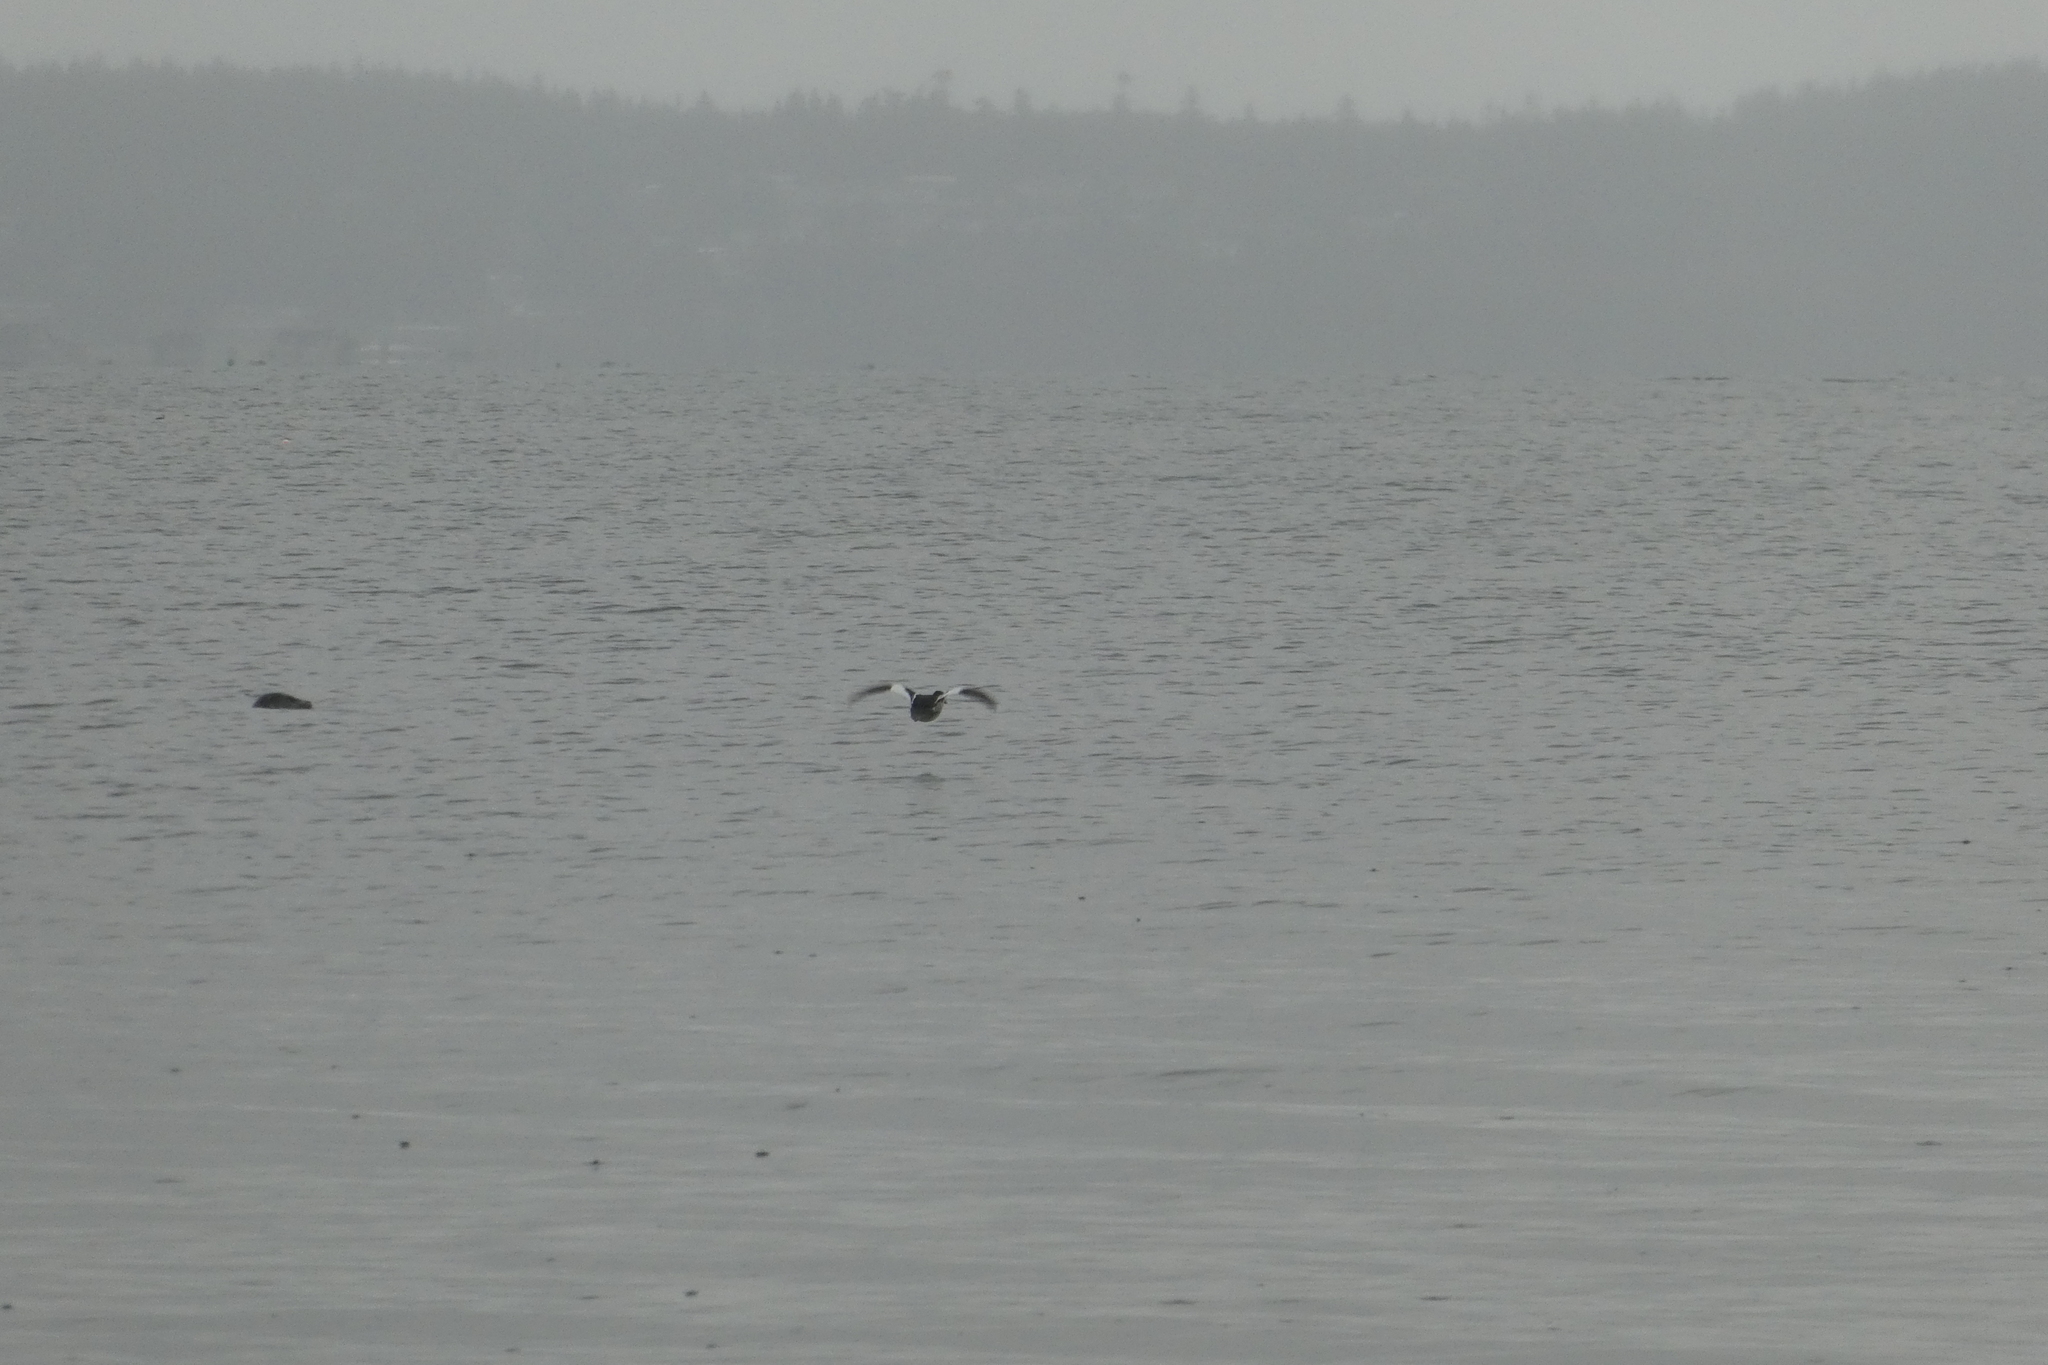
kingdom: Animalia
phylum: Chordata
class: Aves
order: Anseriformes
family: Anatidae
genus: Mergus
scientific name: Mergus serrator
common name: Red-breasted merganser
